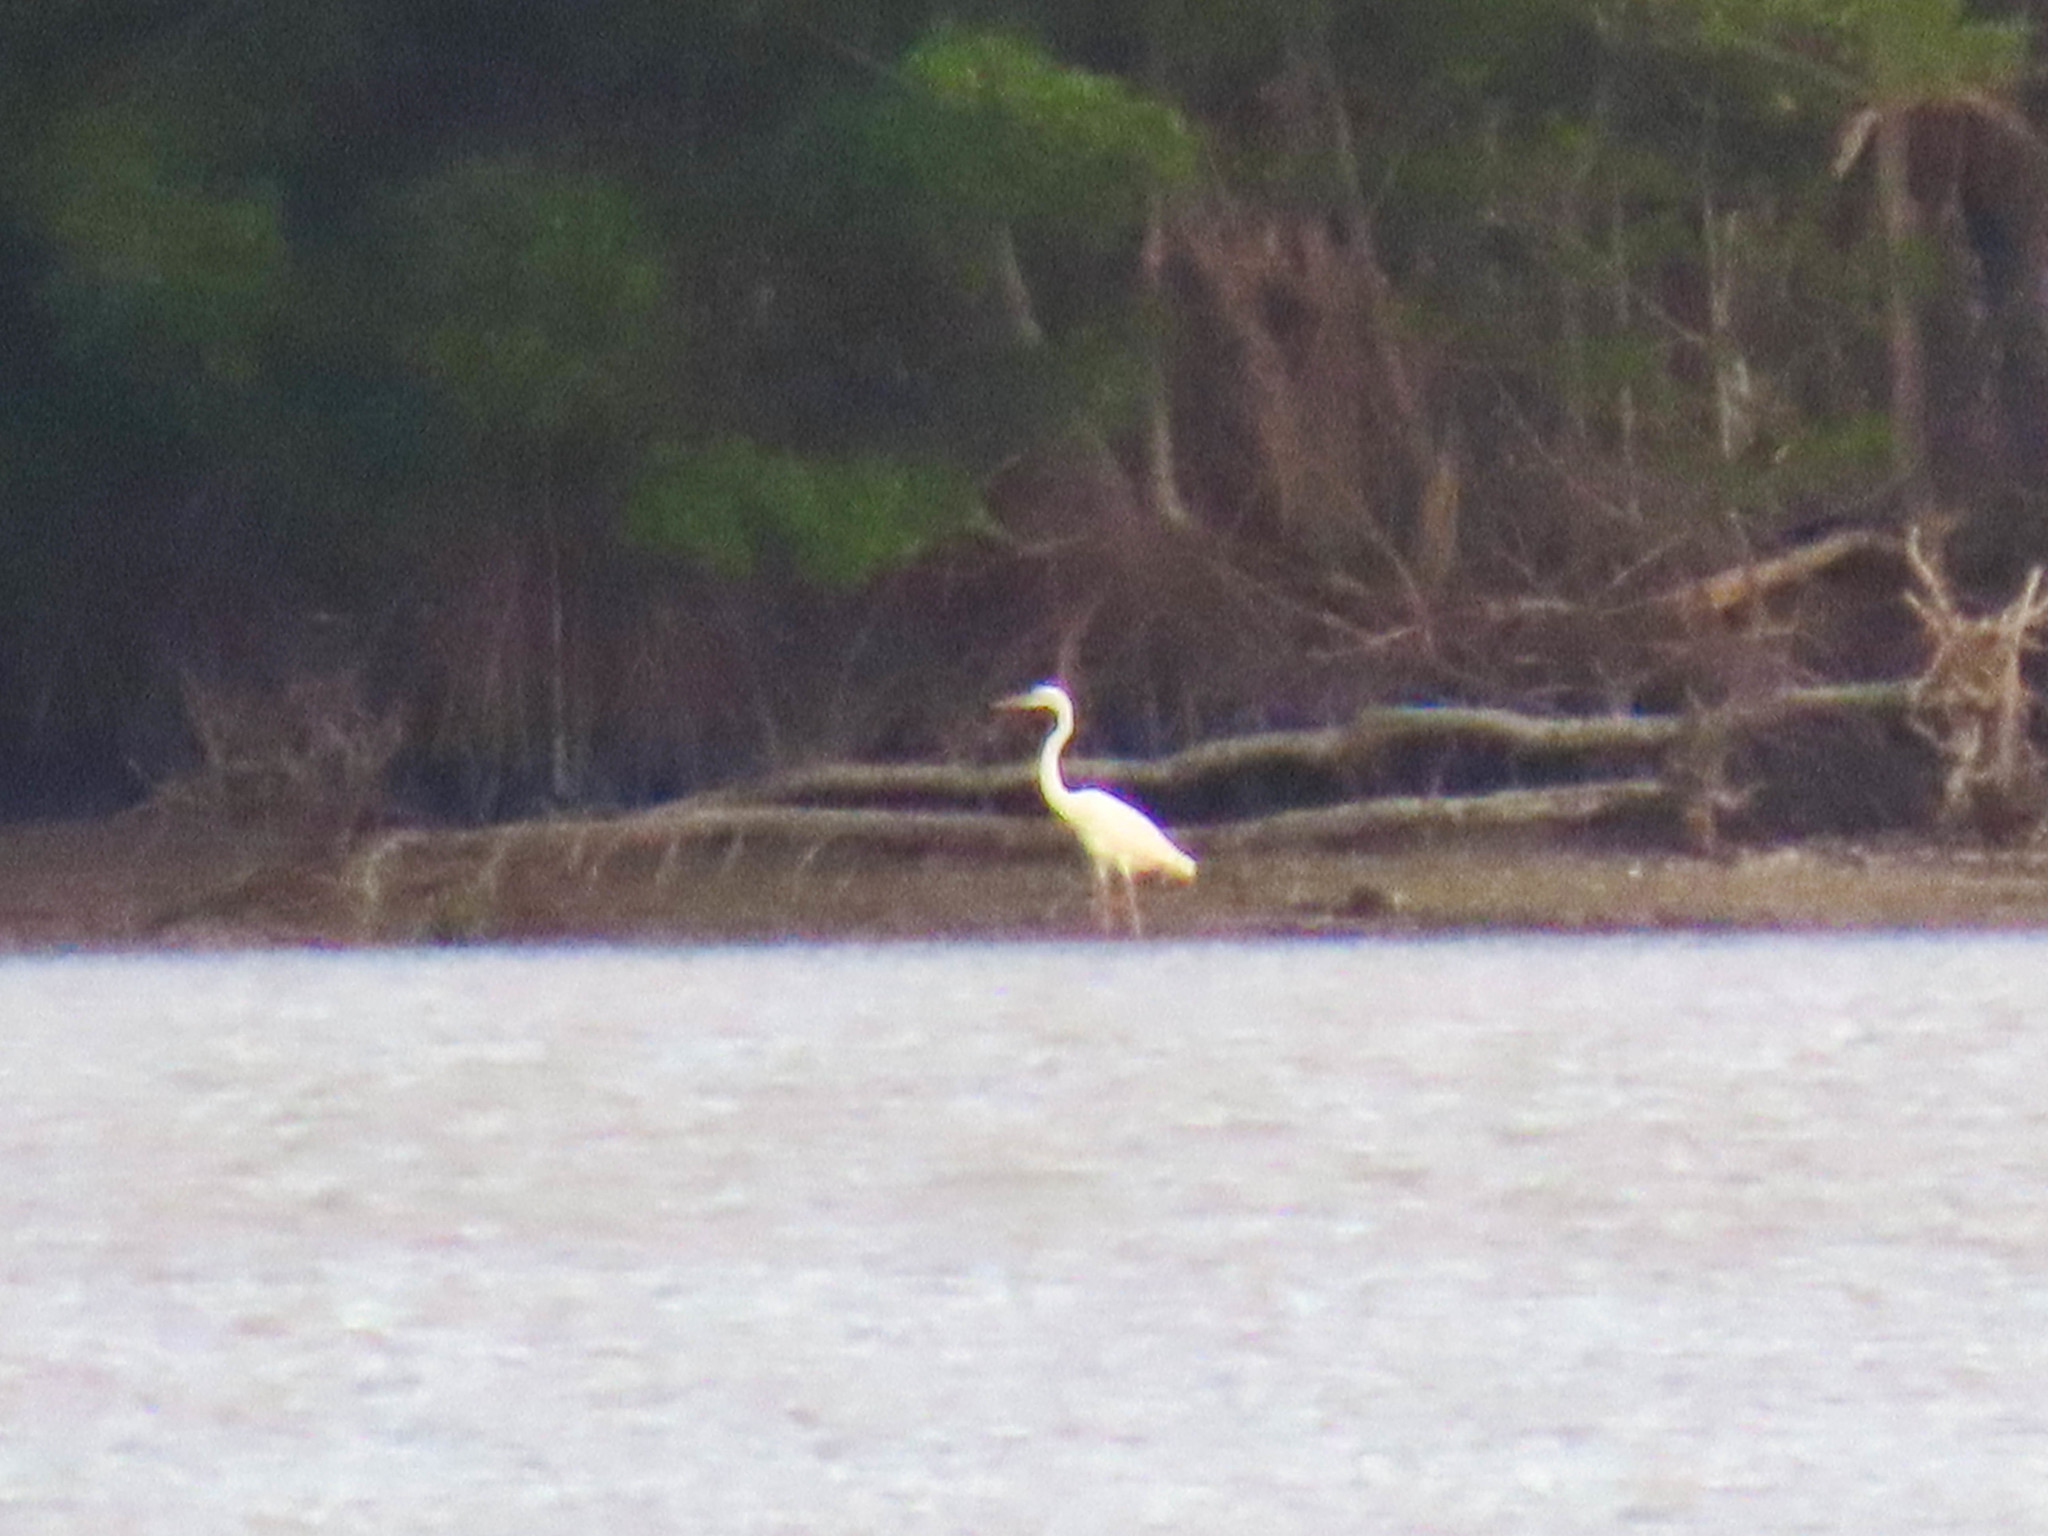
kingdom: Animalia
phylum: Chordata
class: Aves
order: Pelecaniformes
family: Ardeidae
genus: Ardea
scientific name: Ardea herodias
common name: Great blue heron
